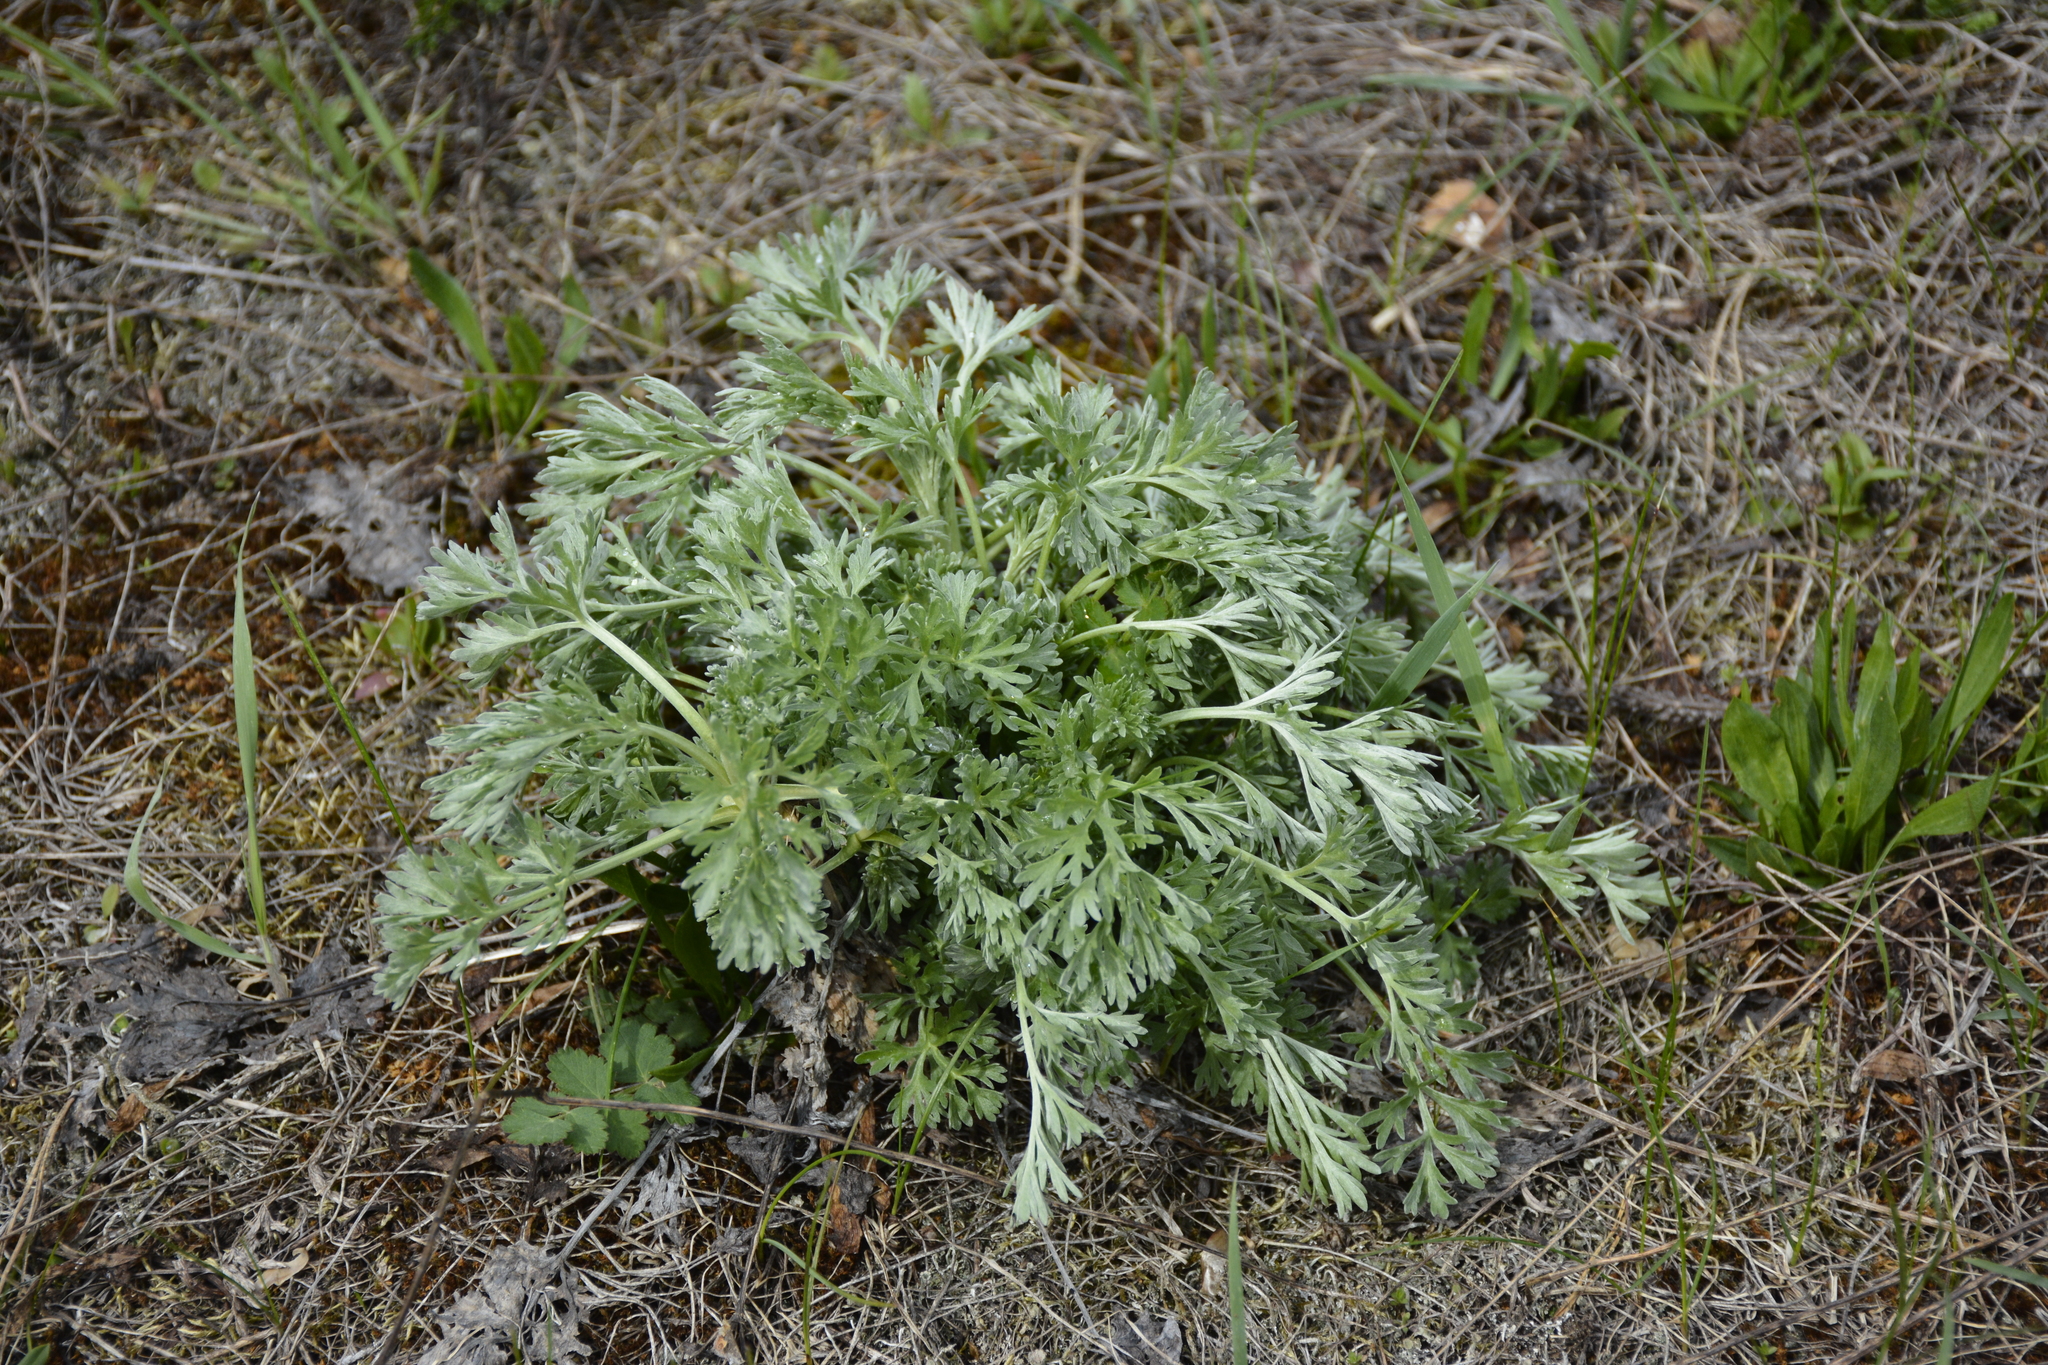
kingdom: Plantae
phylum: Tracheophyta
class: Magnoliopsida
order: Asterales
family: Asteraceae
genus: Artemisia
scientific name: Artemisia absinthium
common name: Wormwood
